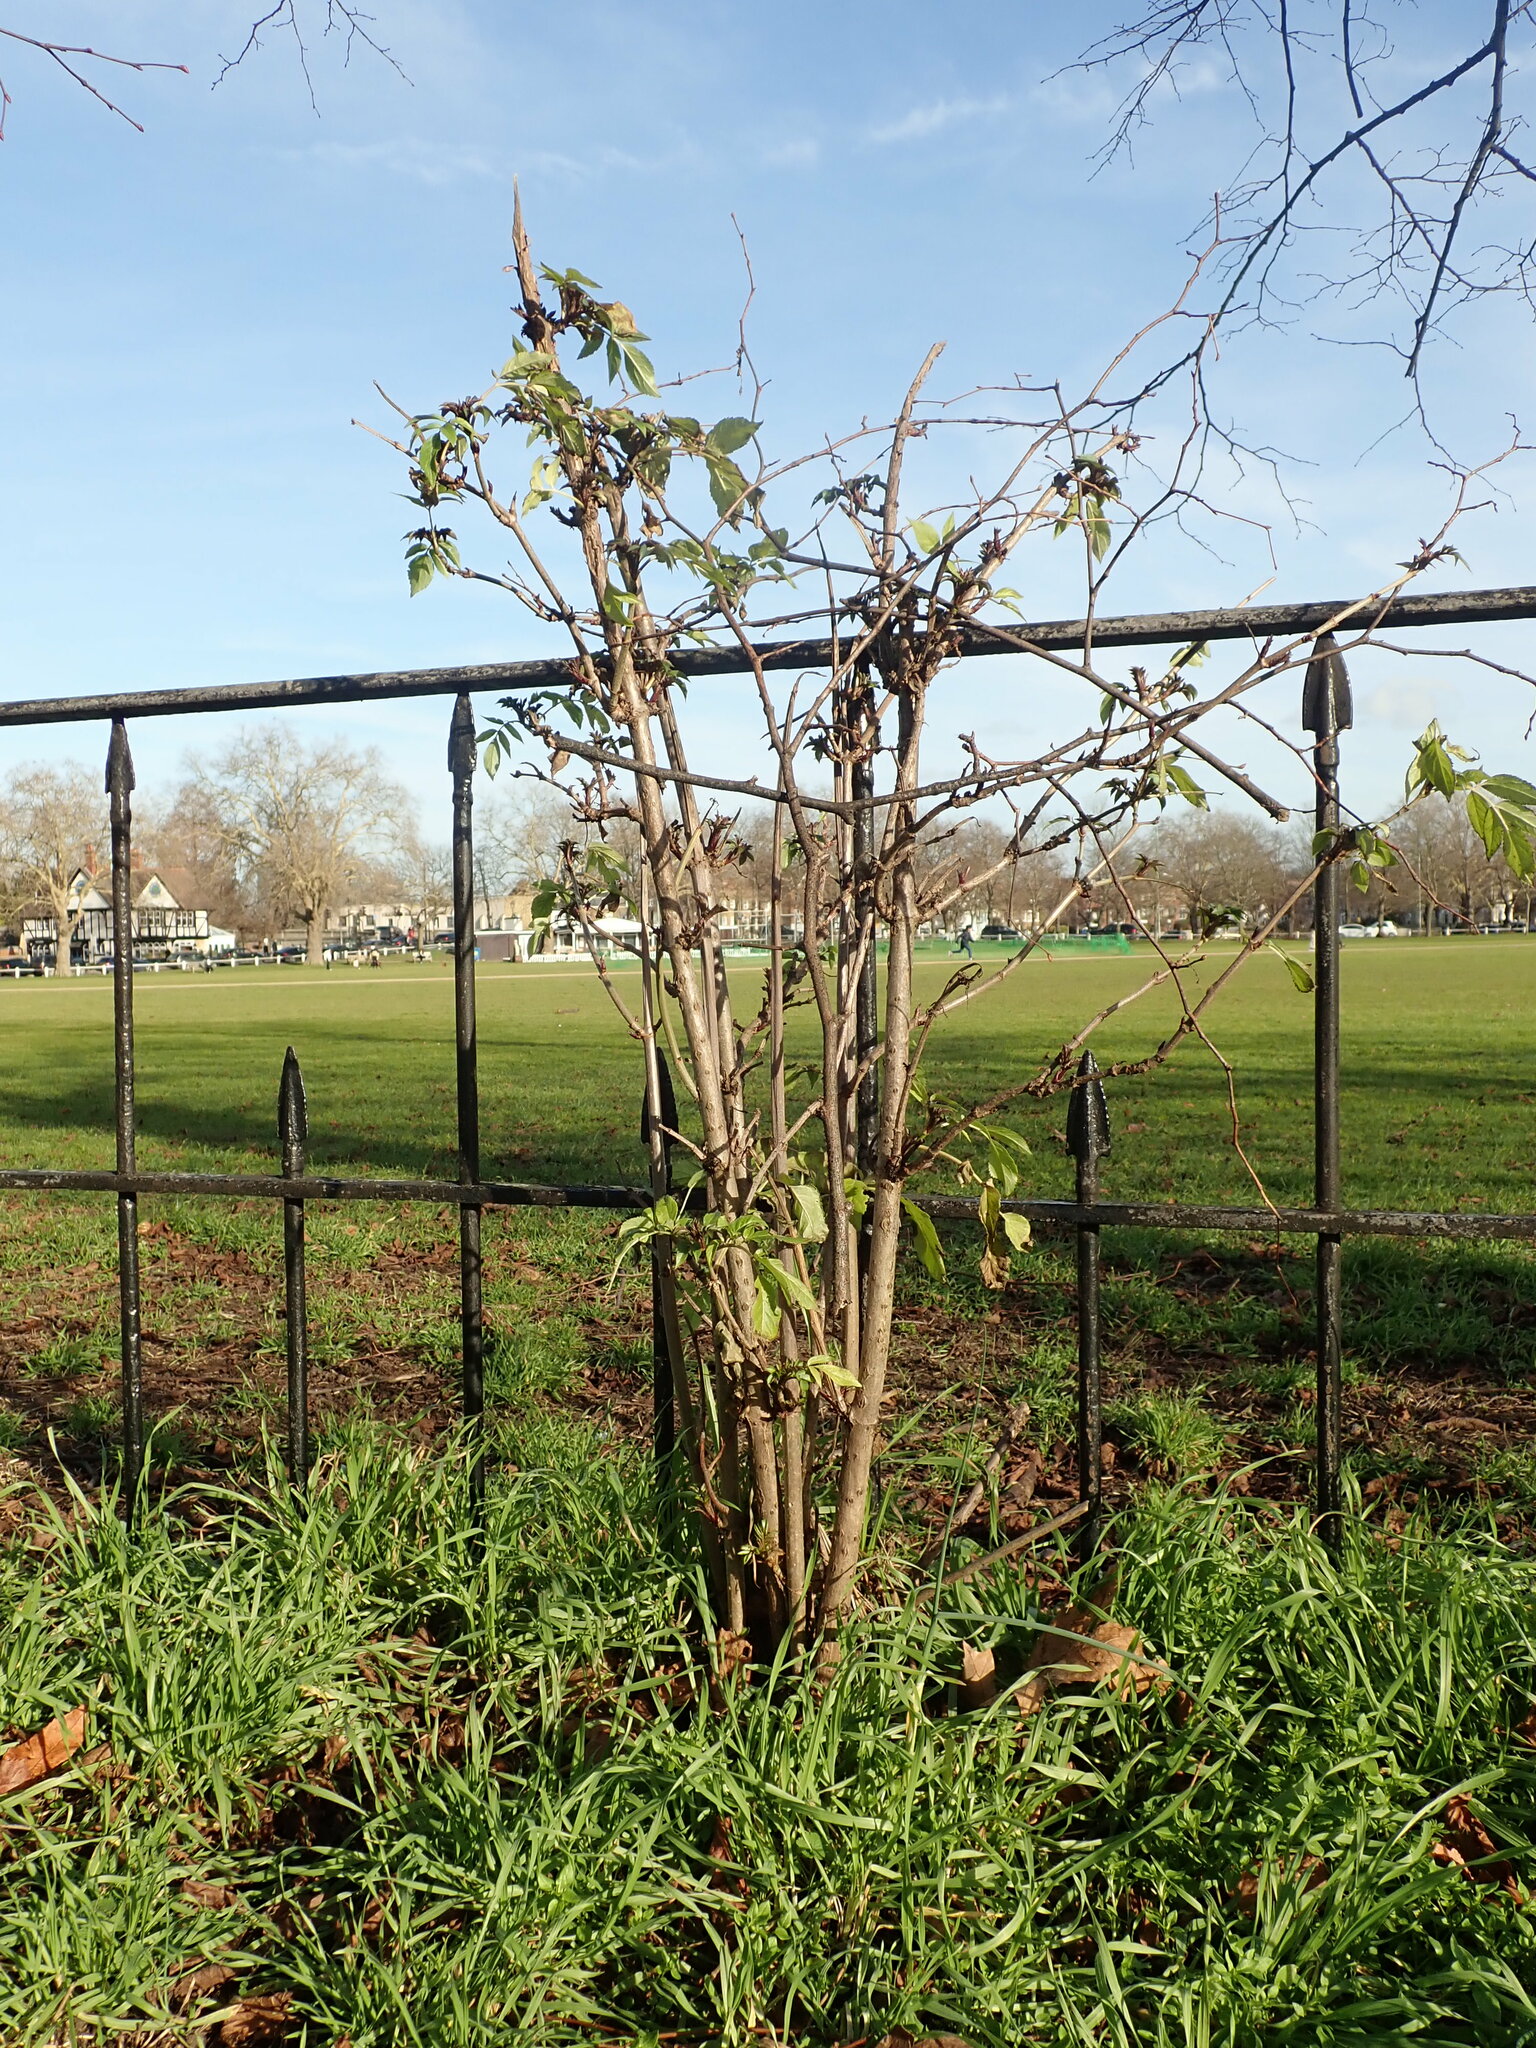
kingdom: Plantae
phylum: Tracheophyta
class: Magnoliopsida
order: Dipsacales
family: Viburnaceae
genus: Sambucus
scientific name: Sambucus nigra
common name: Elder
